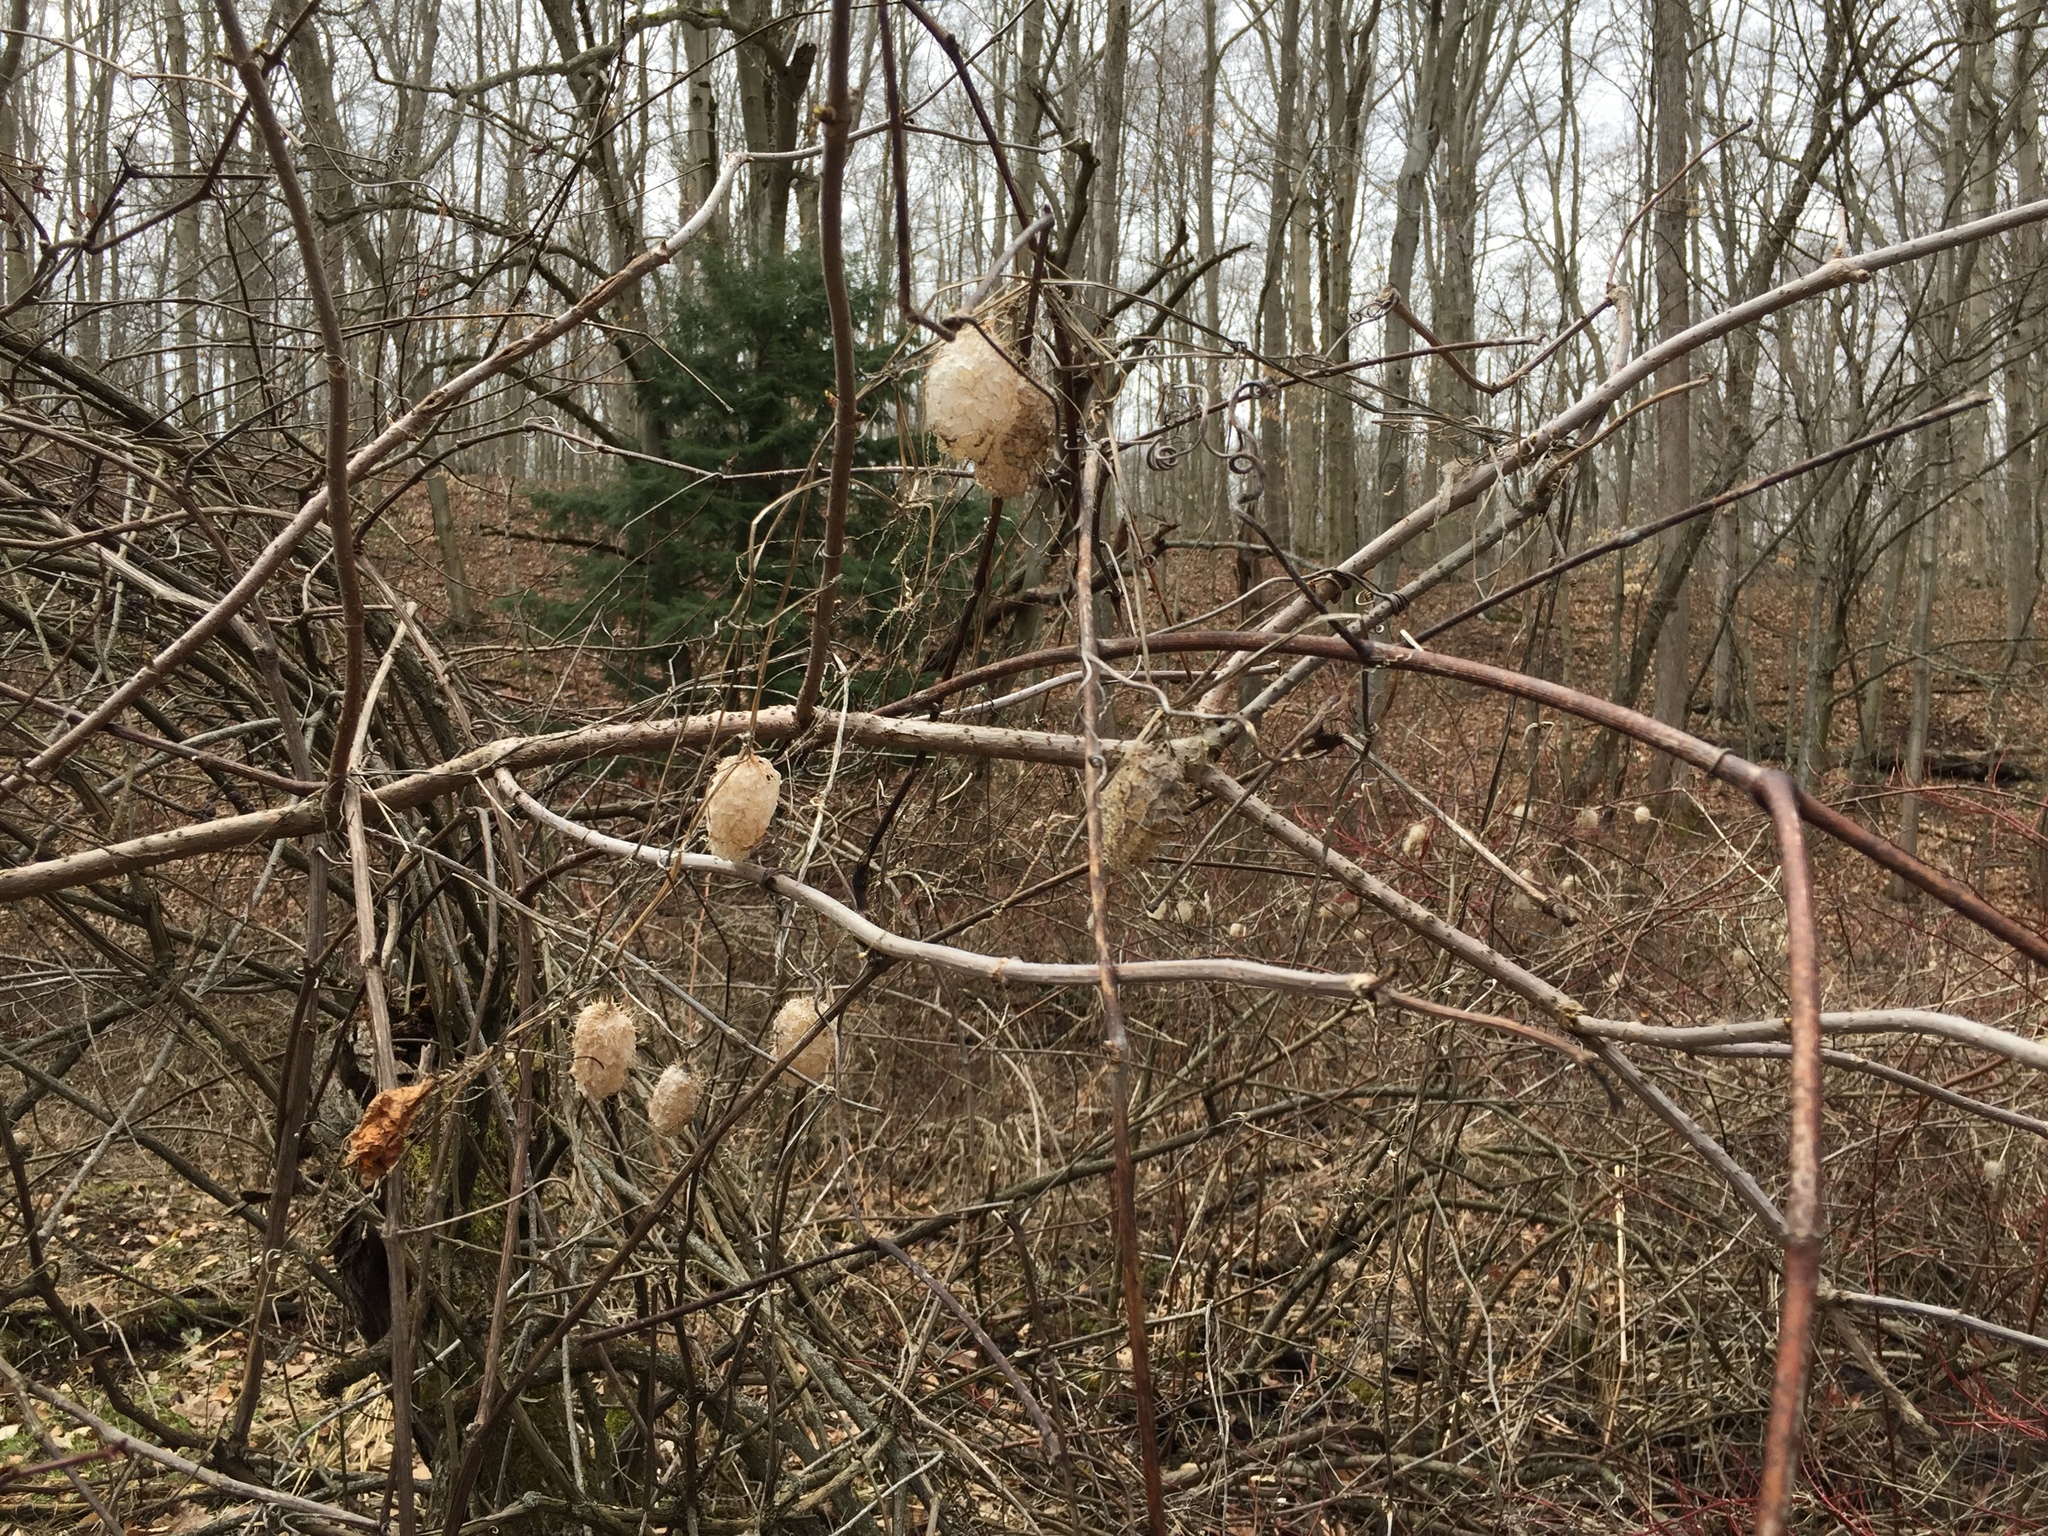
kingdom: Plantae
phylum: Tracheophyta
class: Magnoliopsida
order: Cucurbitales
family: Cucurbitaceae
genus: Echinocystis
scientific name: Echinocystis lobata
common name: Wild cucumber
